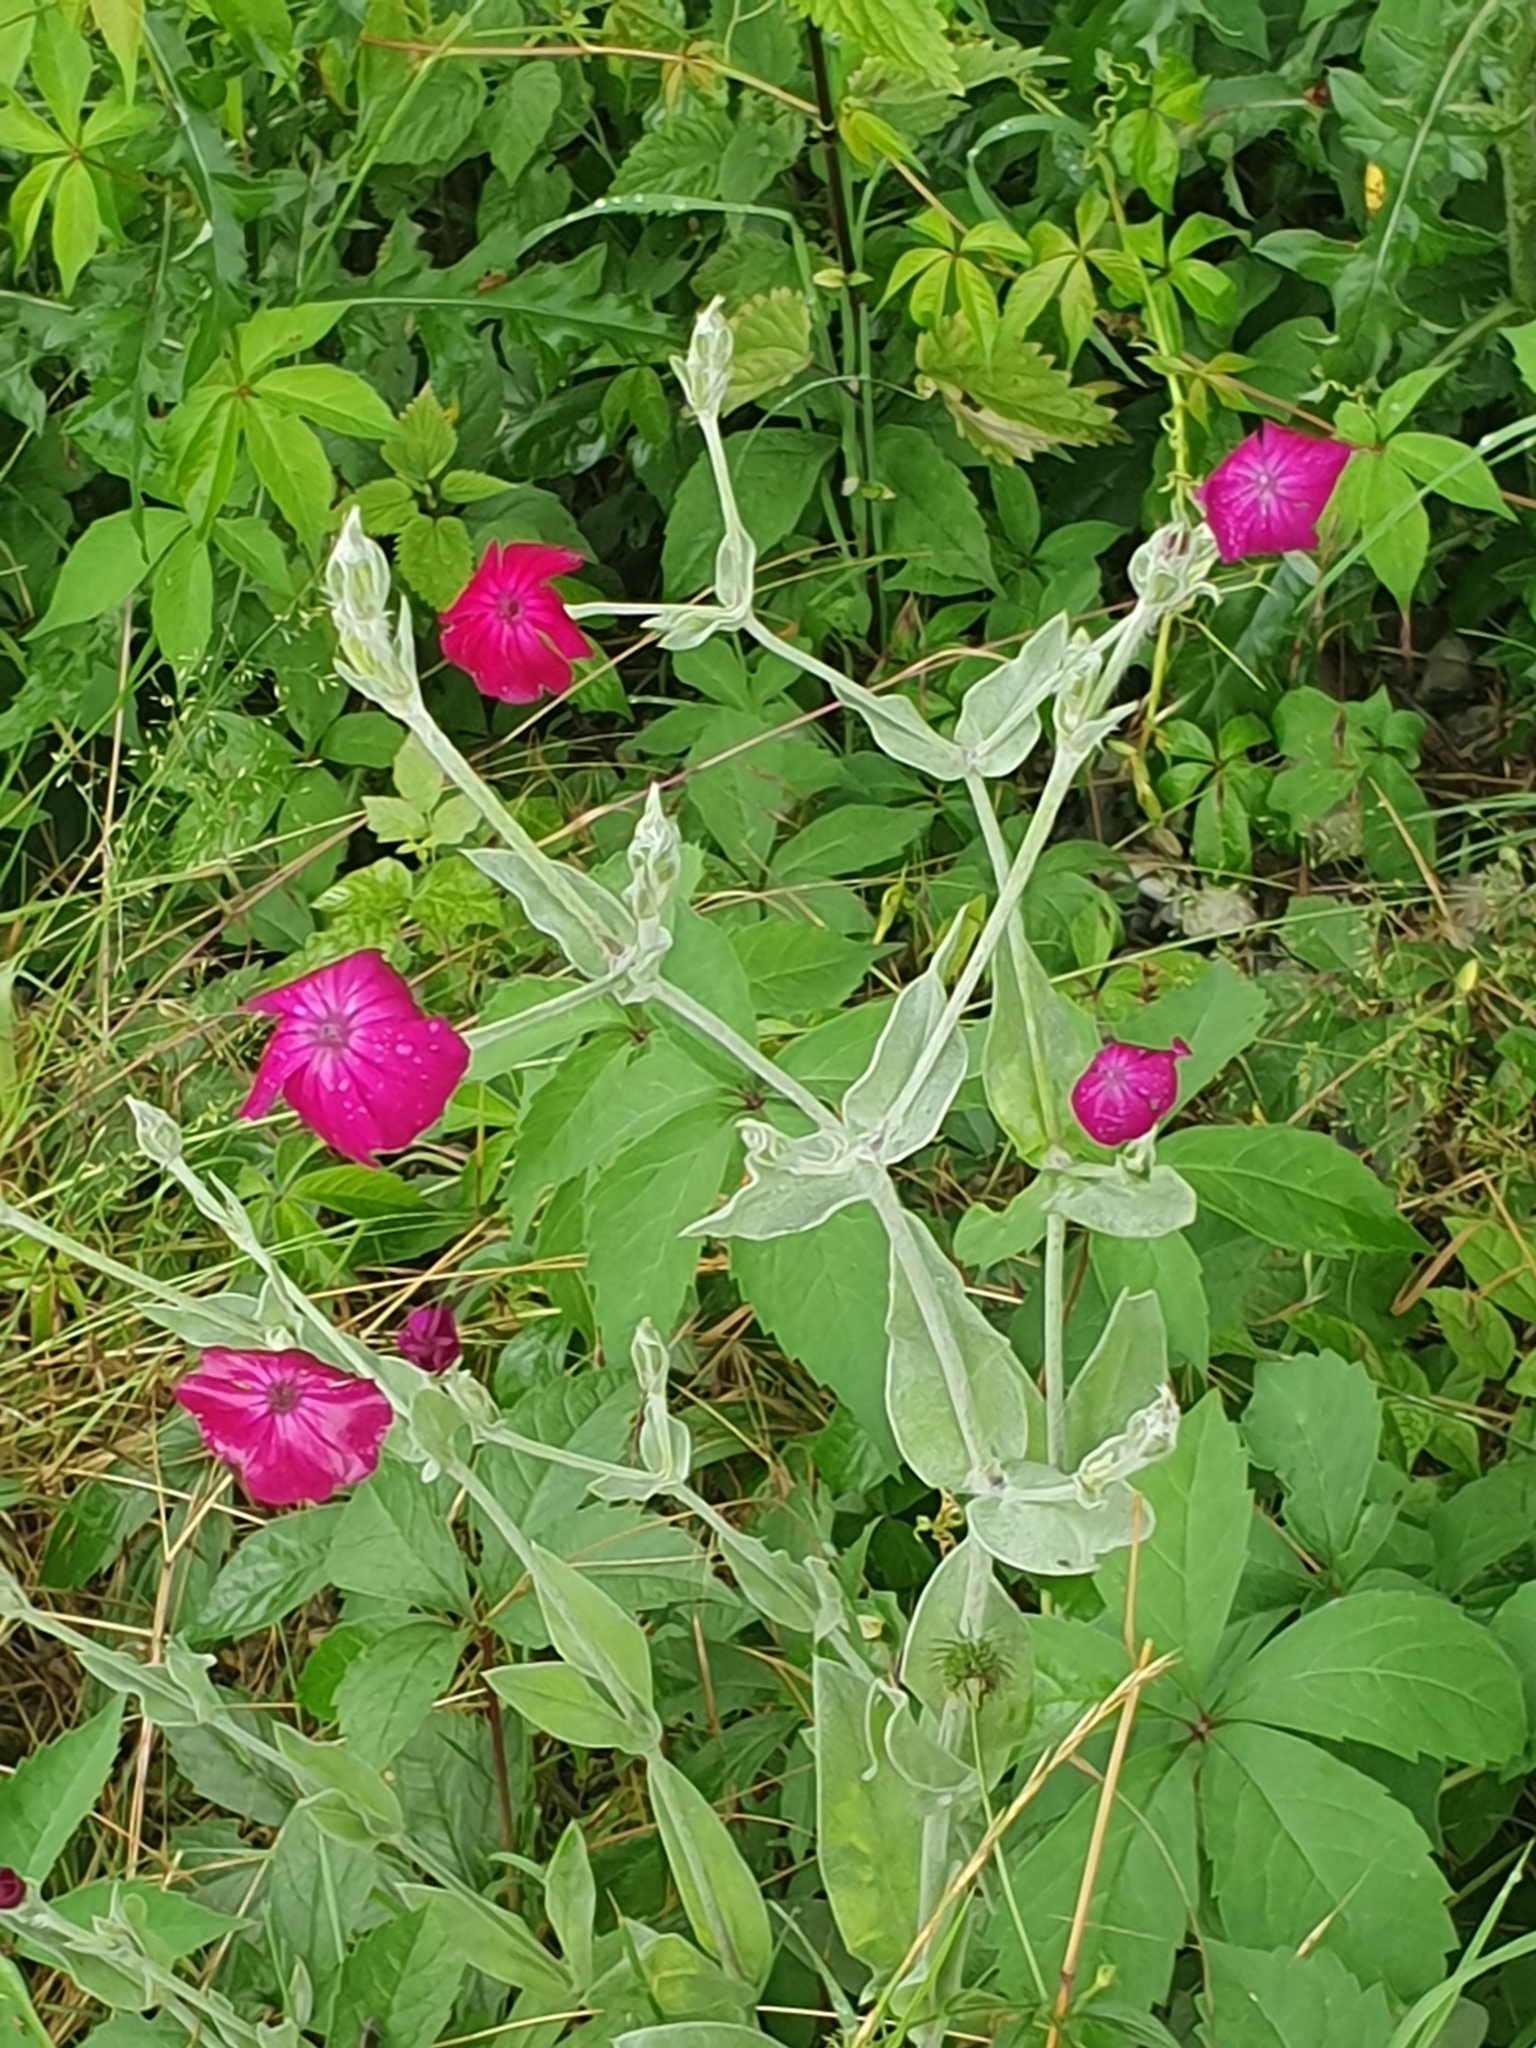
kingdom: Plantae
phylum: Tracheophyta
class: Magnoliopsida
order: Caryophyllales
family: Caryophyllaceae
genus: Silene
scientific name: Silene coronaria
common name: Rose campion
